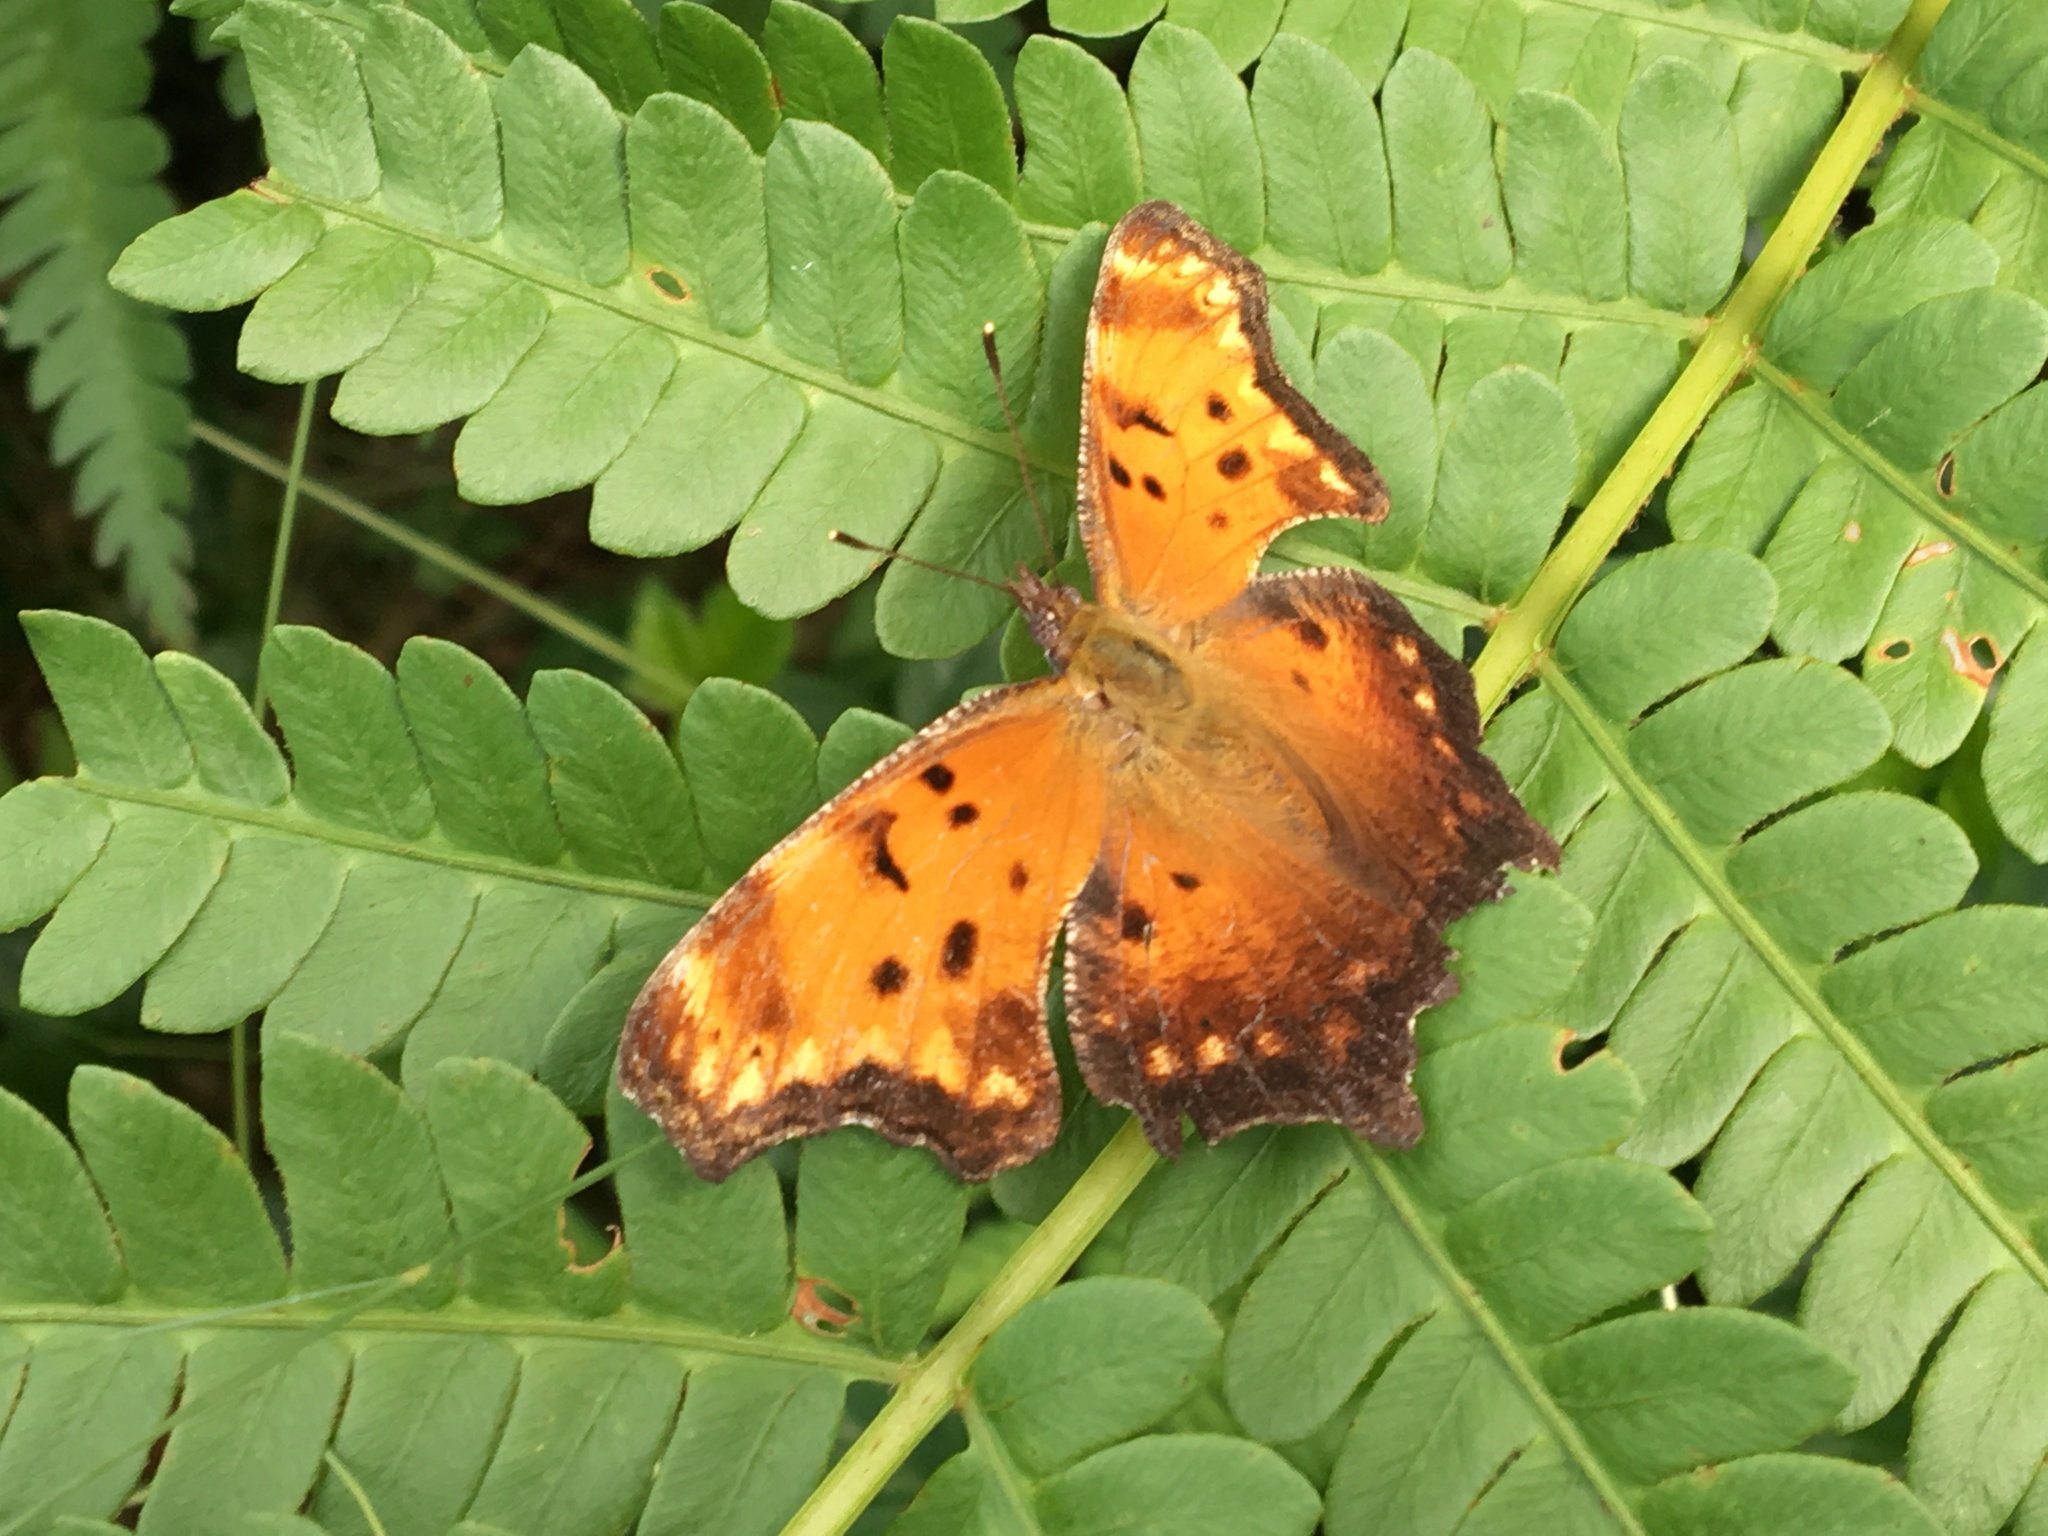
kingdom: Animalia
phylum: Arthropoda
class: Insecta
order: Lepidoptera
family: Nymphalidae
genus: Polygonia
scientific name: Polygonia progne
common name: Gray comma
